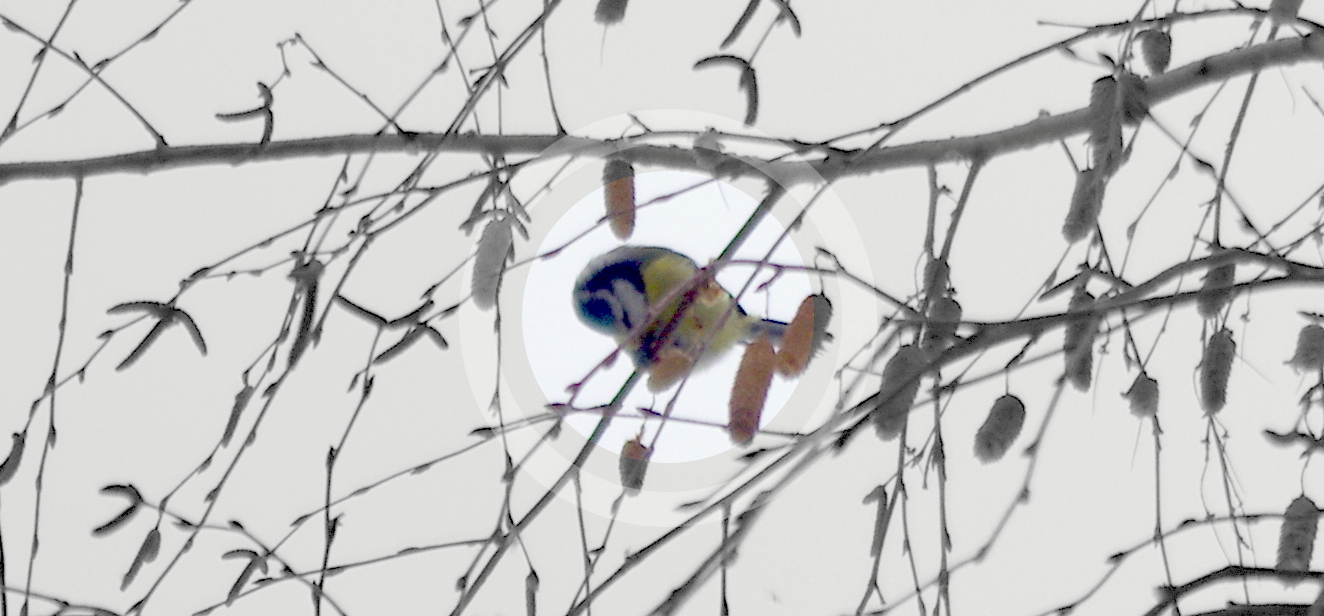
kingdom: Animalia
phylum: Chordata
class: Aves
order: Passeriformes
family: Paridae
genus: Cyanistes
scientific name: Cyanistes caeruleus
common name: Eurasian blue tit
